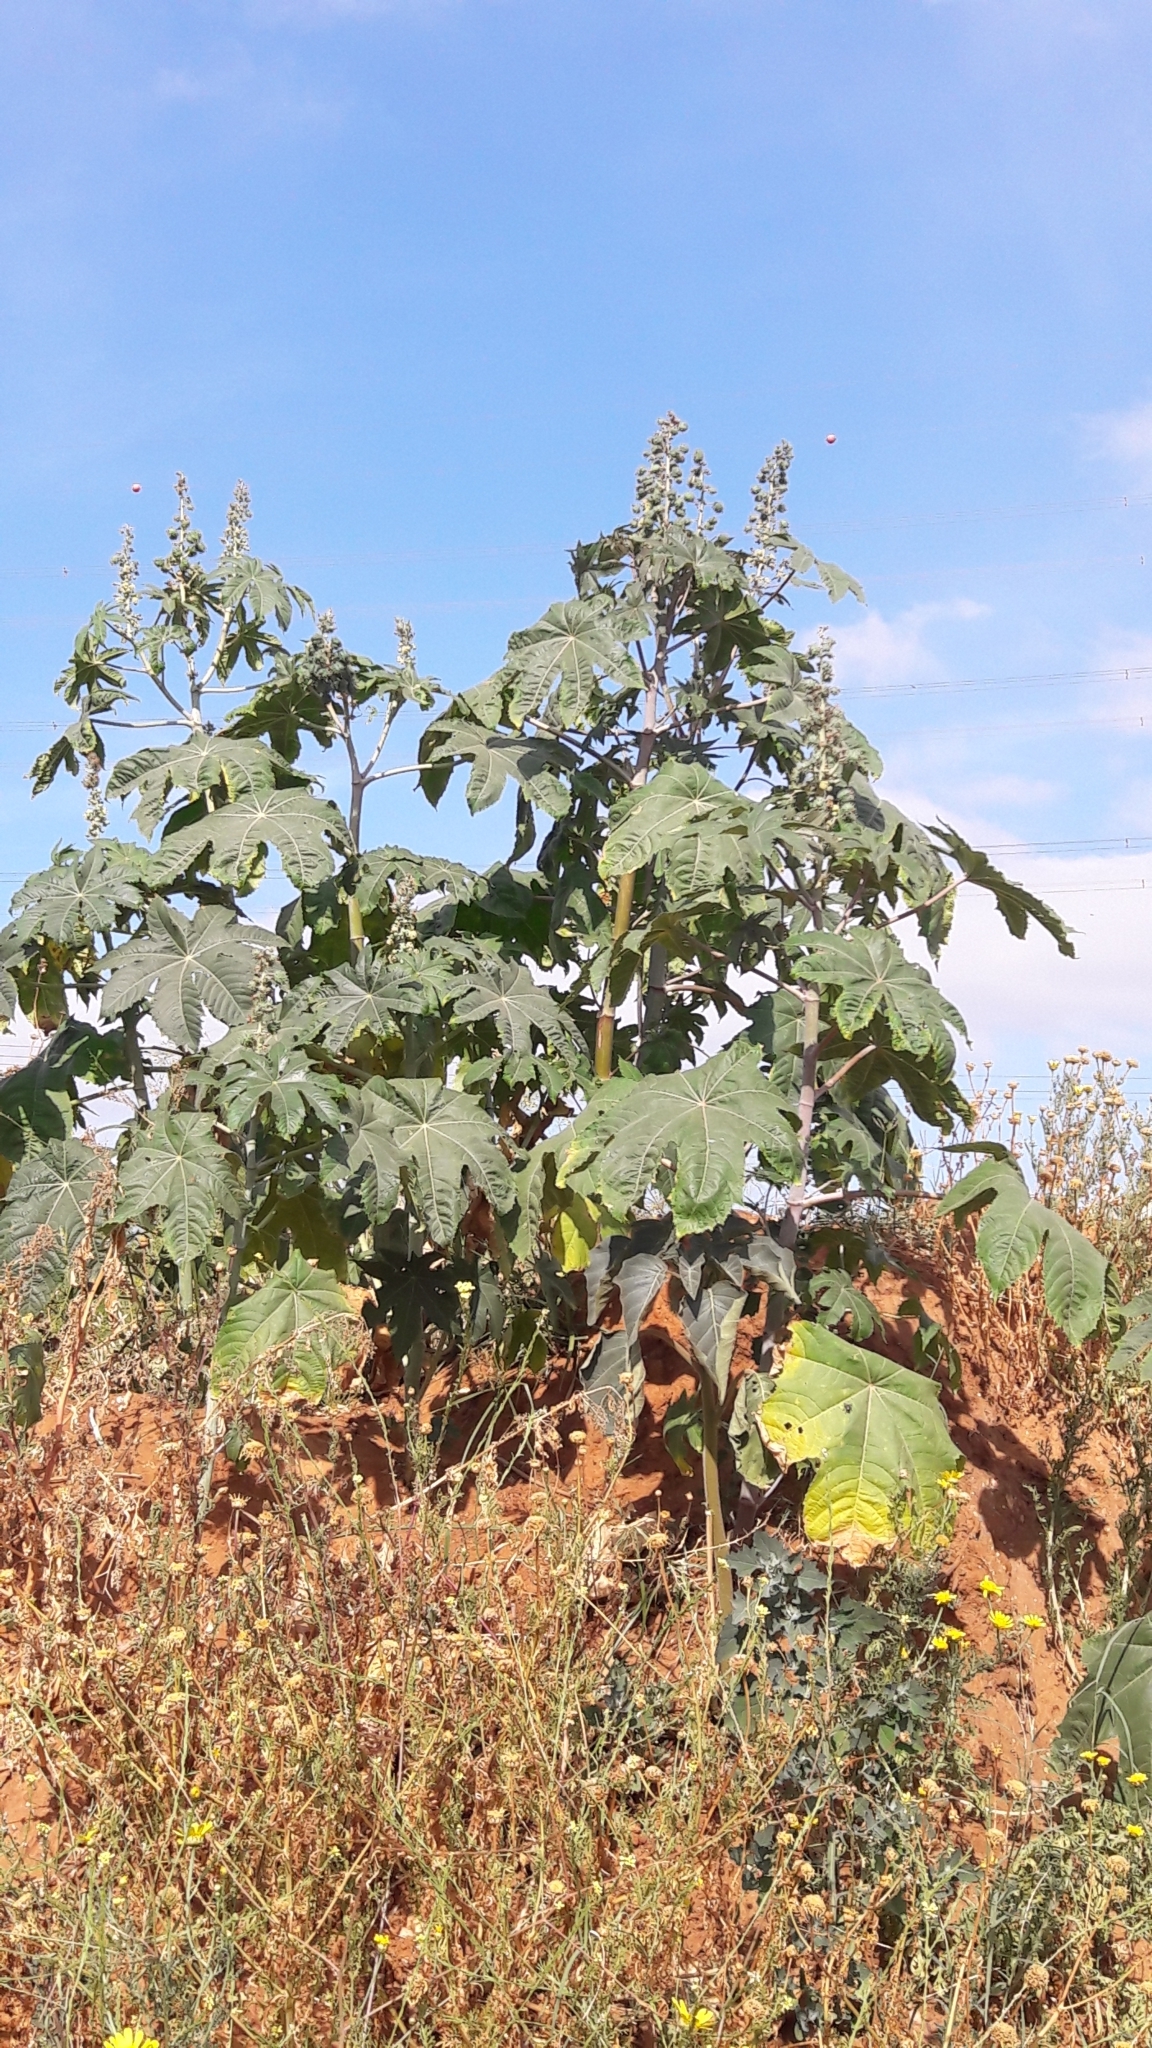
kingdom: Plantae
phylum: Tracheophyta
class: Magnoliopsida
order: Malpighiales
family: Euphorbiaceae
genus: Ricinus
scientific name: Ricinus communis
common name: Castor-oil-plant
